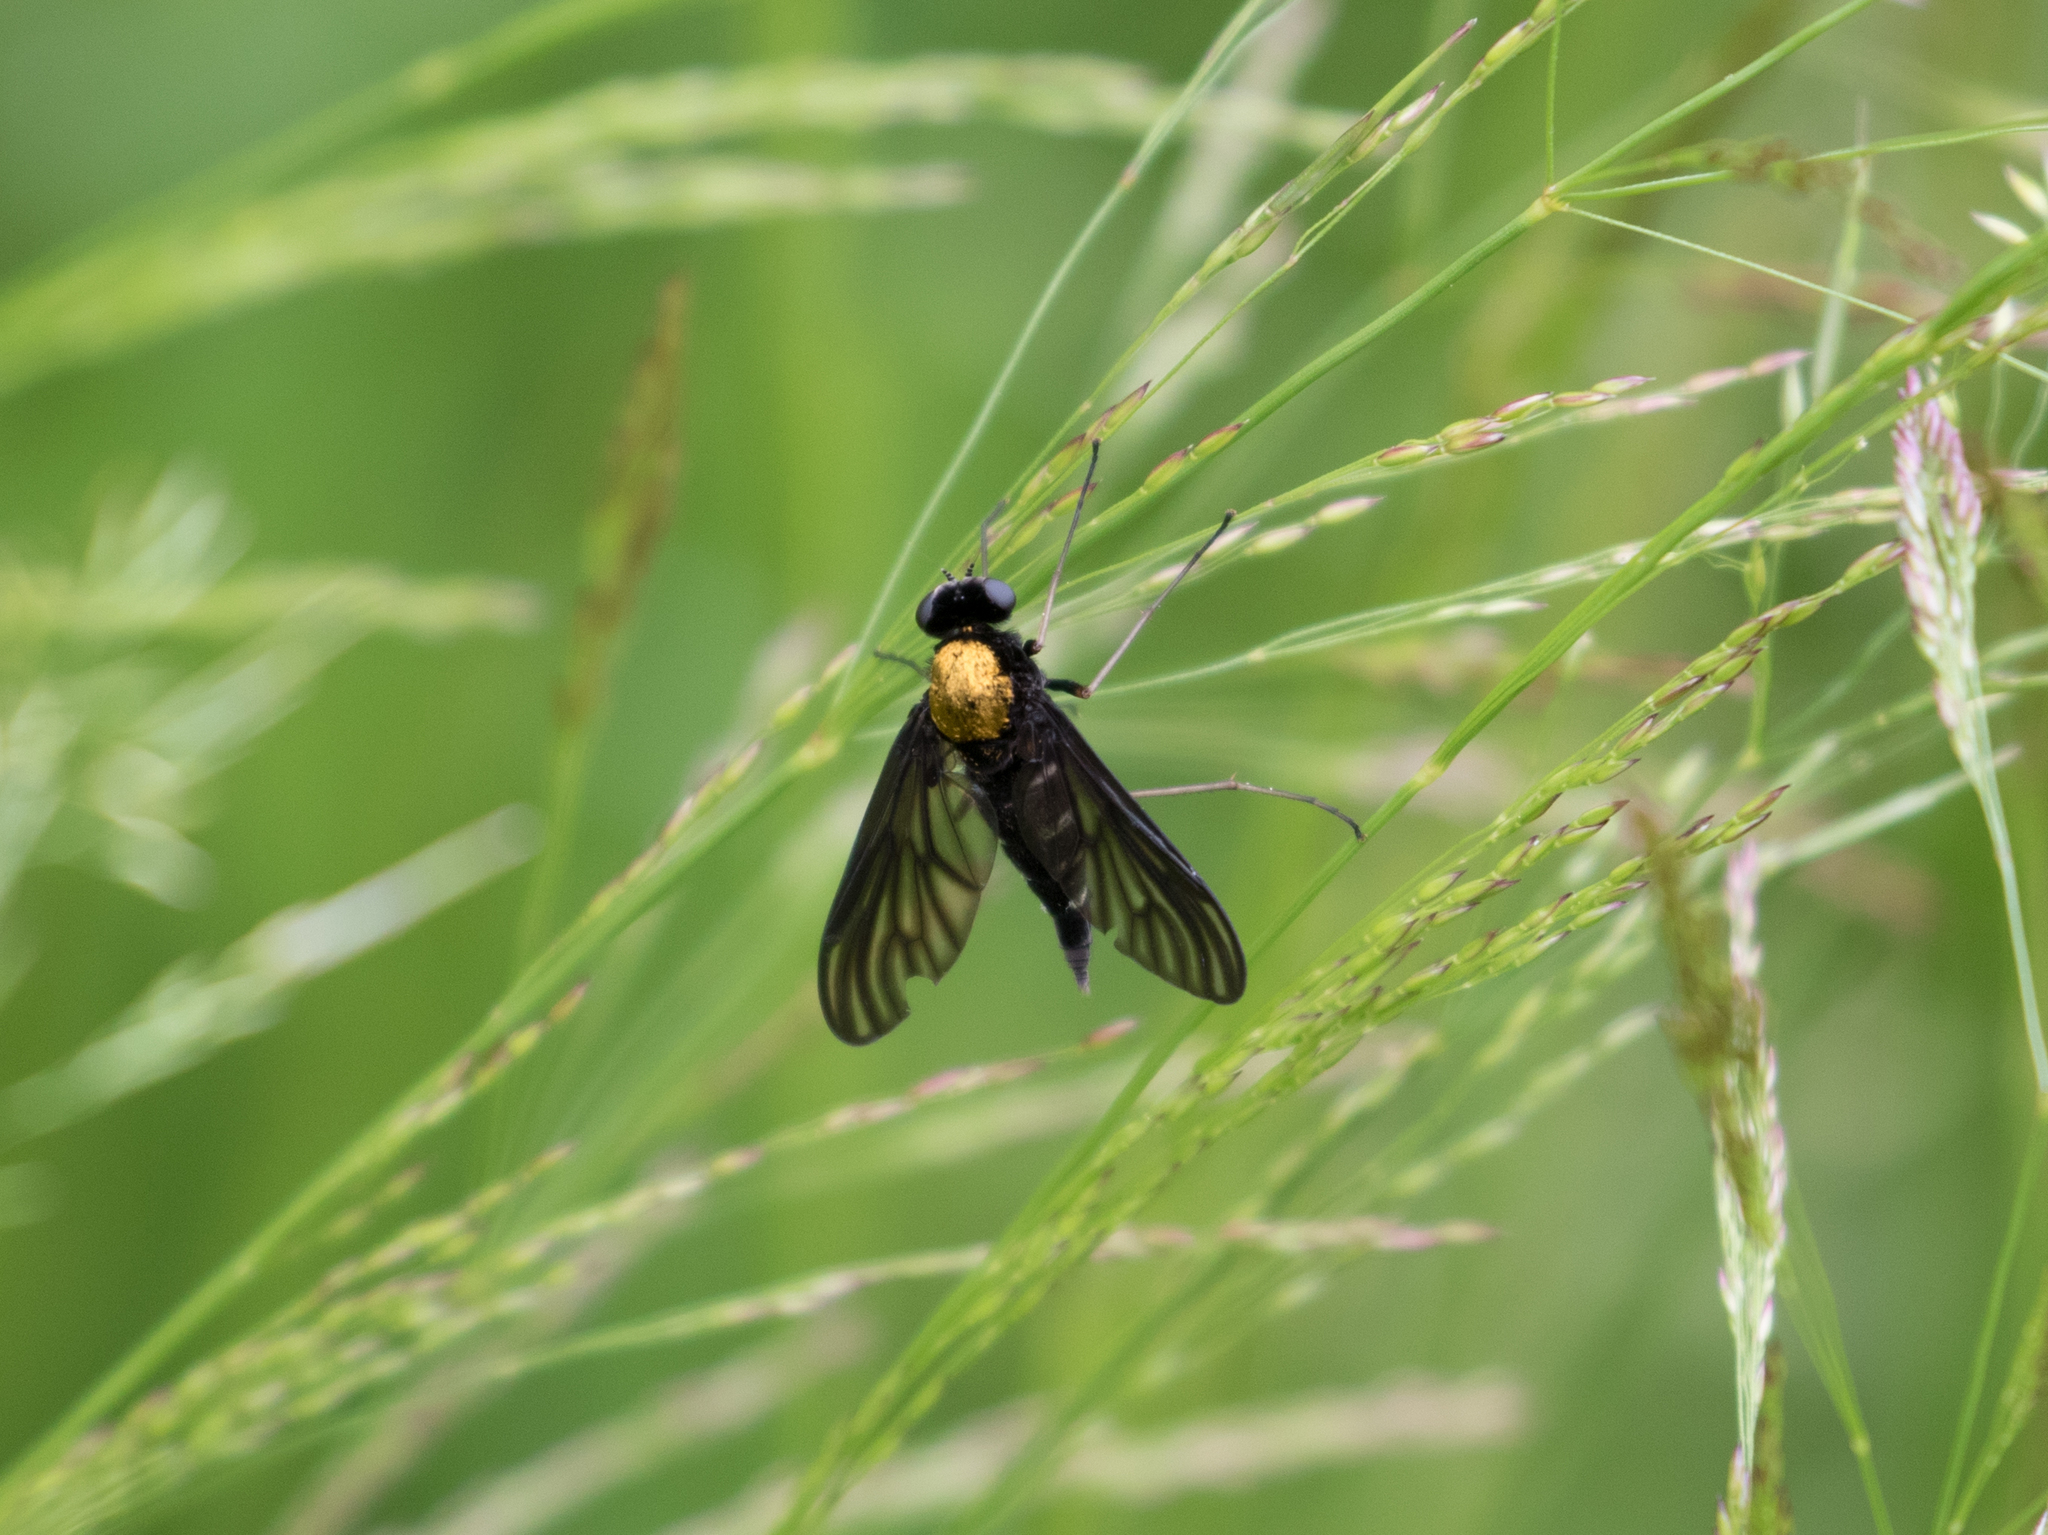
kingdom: Animalia
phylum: Arthropoda
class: Insecta
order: Diptera
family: Rhagionidae
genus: Chrysopilus
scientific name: Chrysopilus thoracicus
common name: Golden-backed snipe fly
